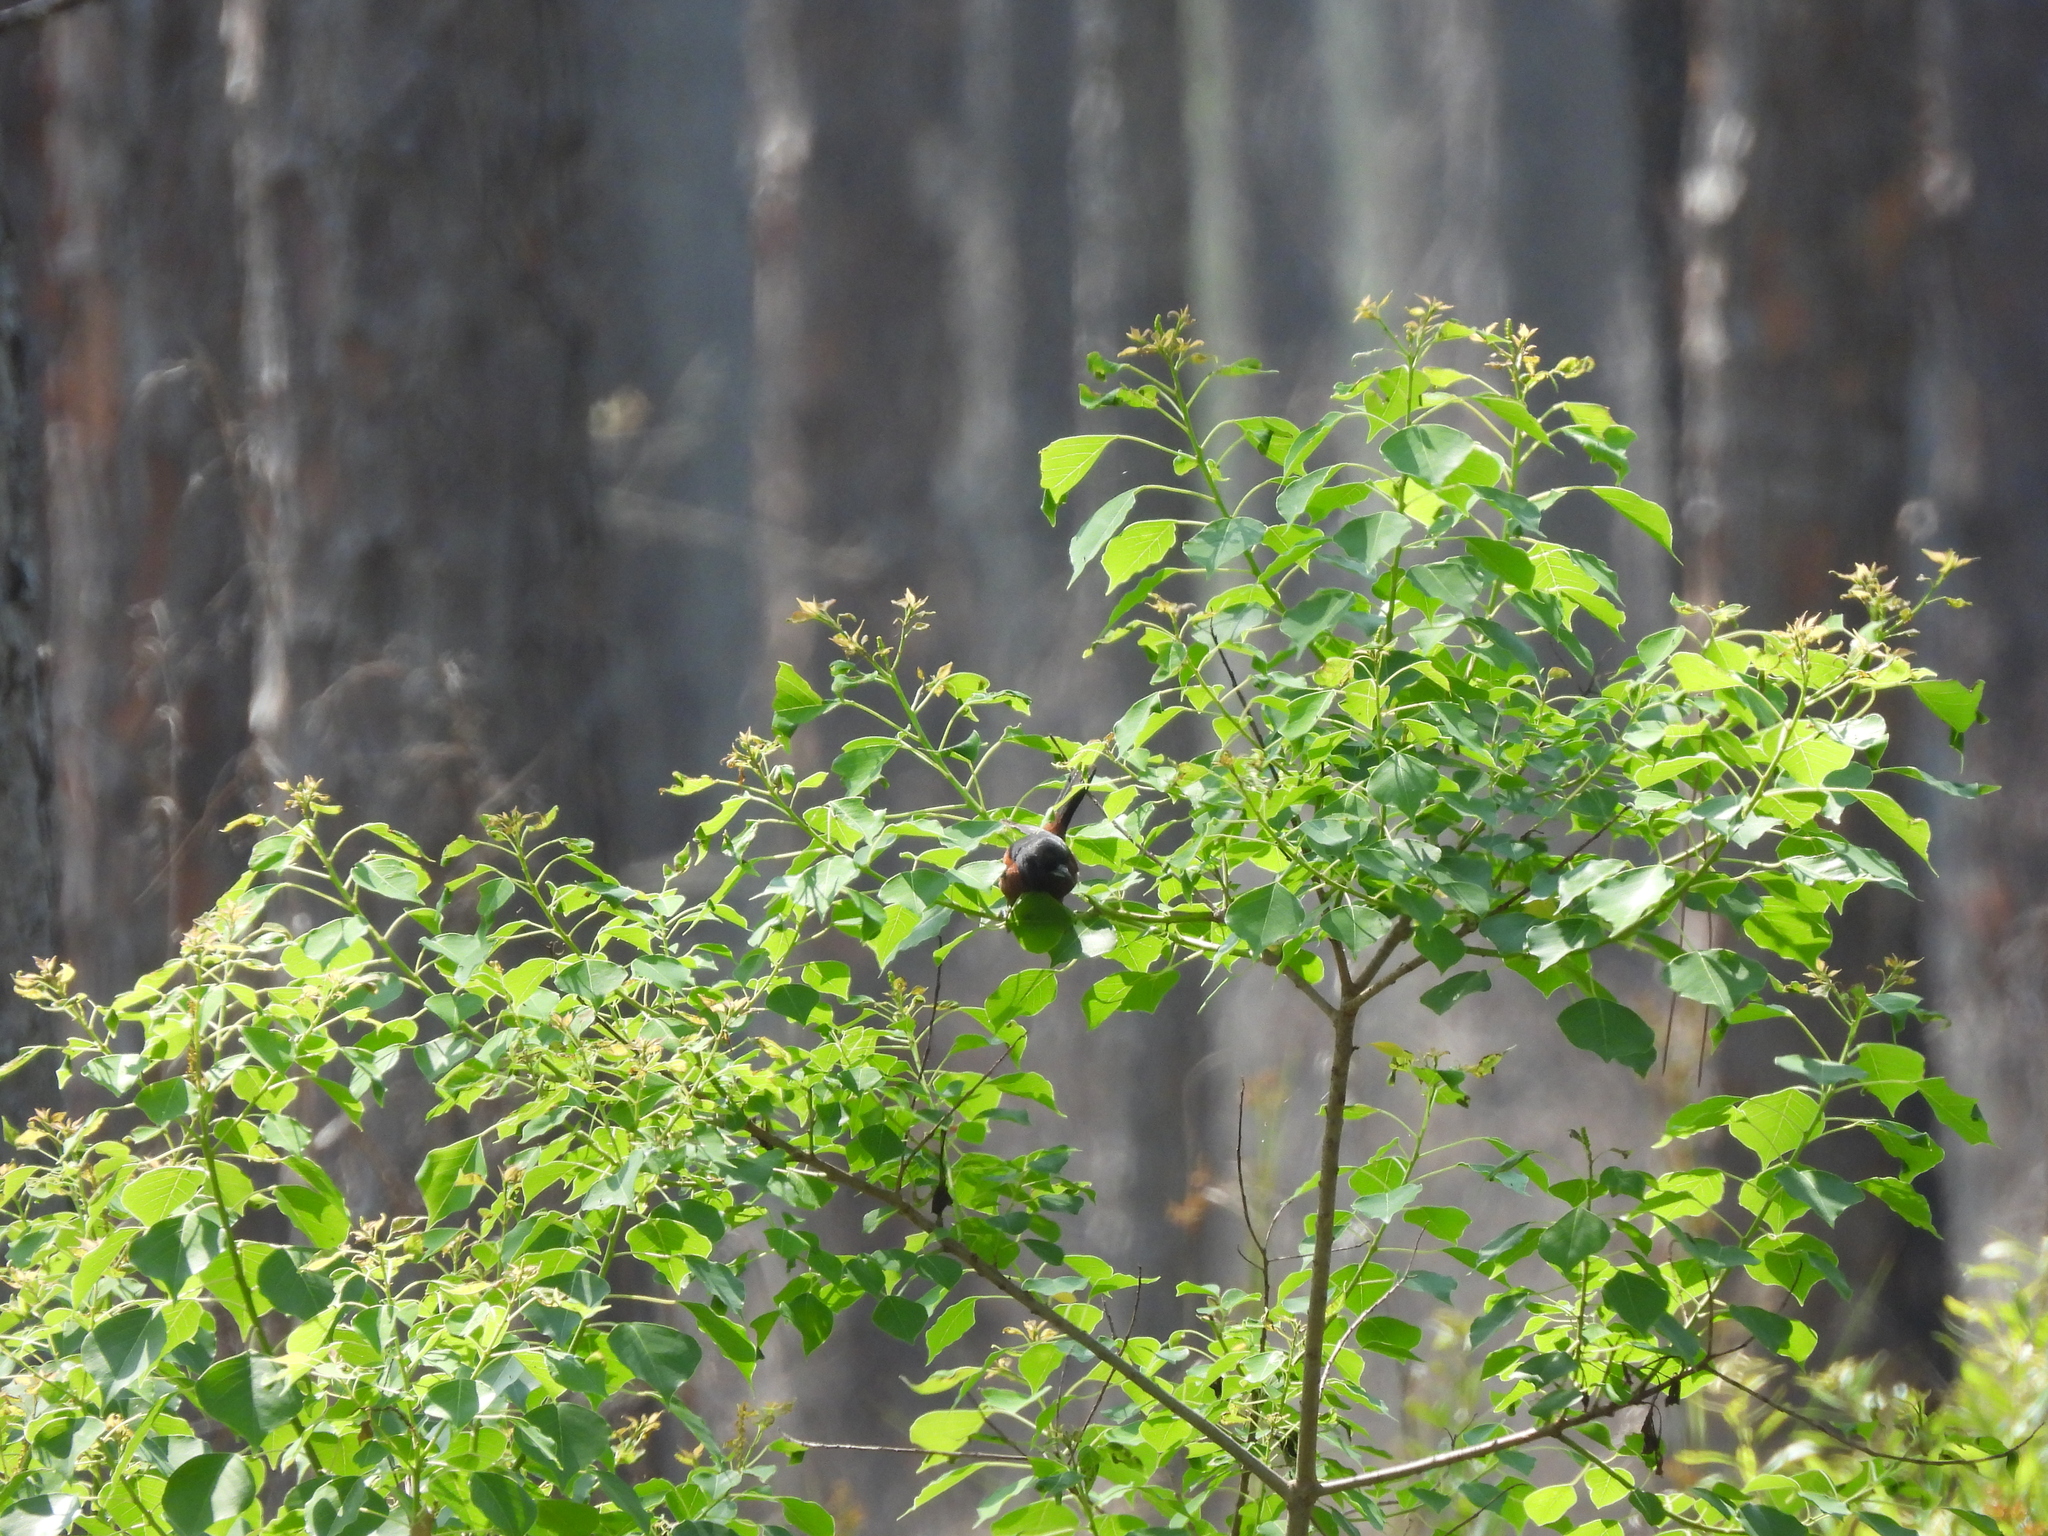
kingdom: Animalia
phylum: Chordata
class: Aves
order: Passeriformes
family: Icteridae
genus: Icterus
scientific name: Icterus spurius
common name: Orchard oriole
